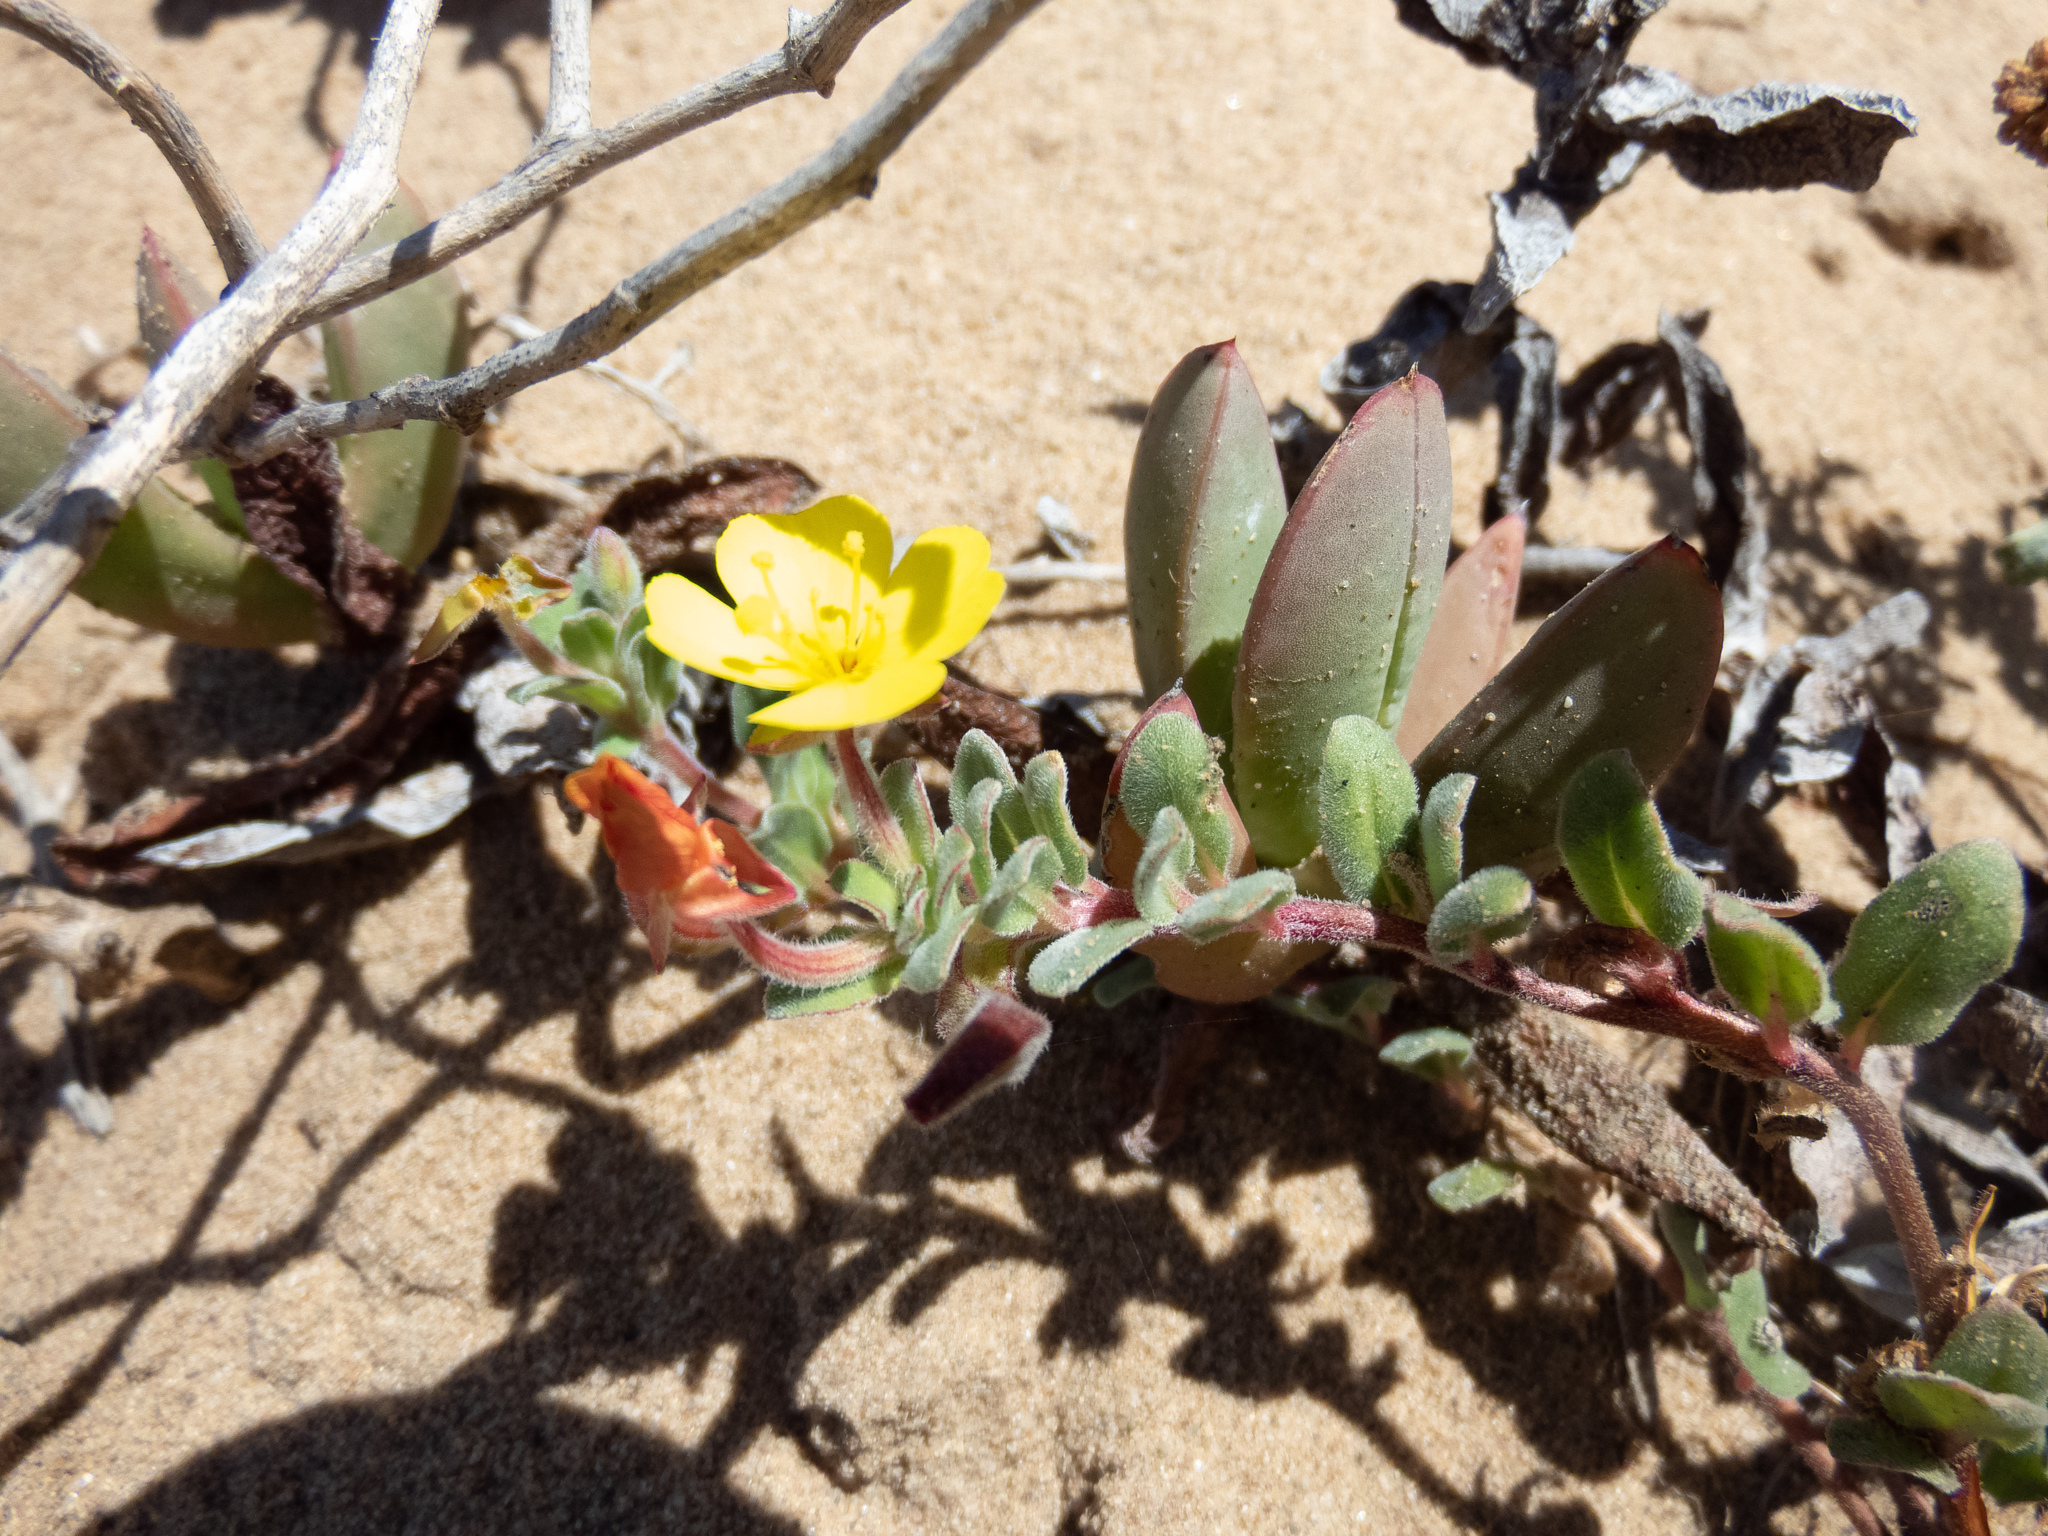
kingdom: Plantae
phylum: Tracheophyta
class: Magnoliopsida
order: Myrtales
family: Onagraceae
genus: Camissoniopsis
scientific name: Camissoniopsis cheiranthifolia
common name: Beach suncup
